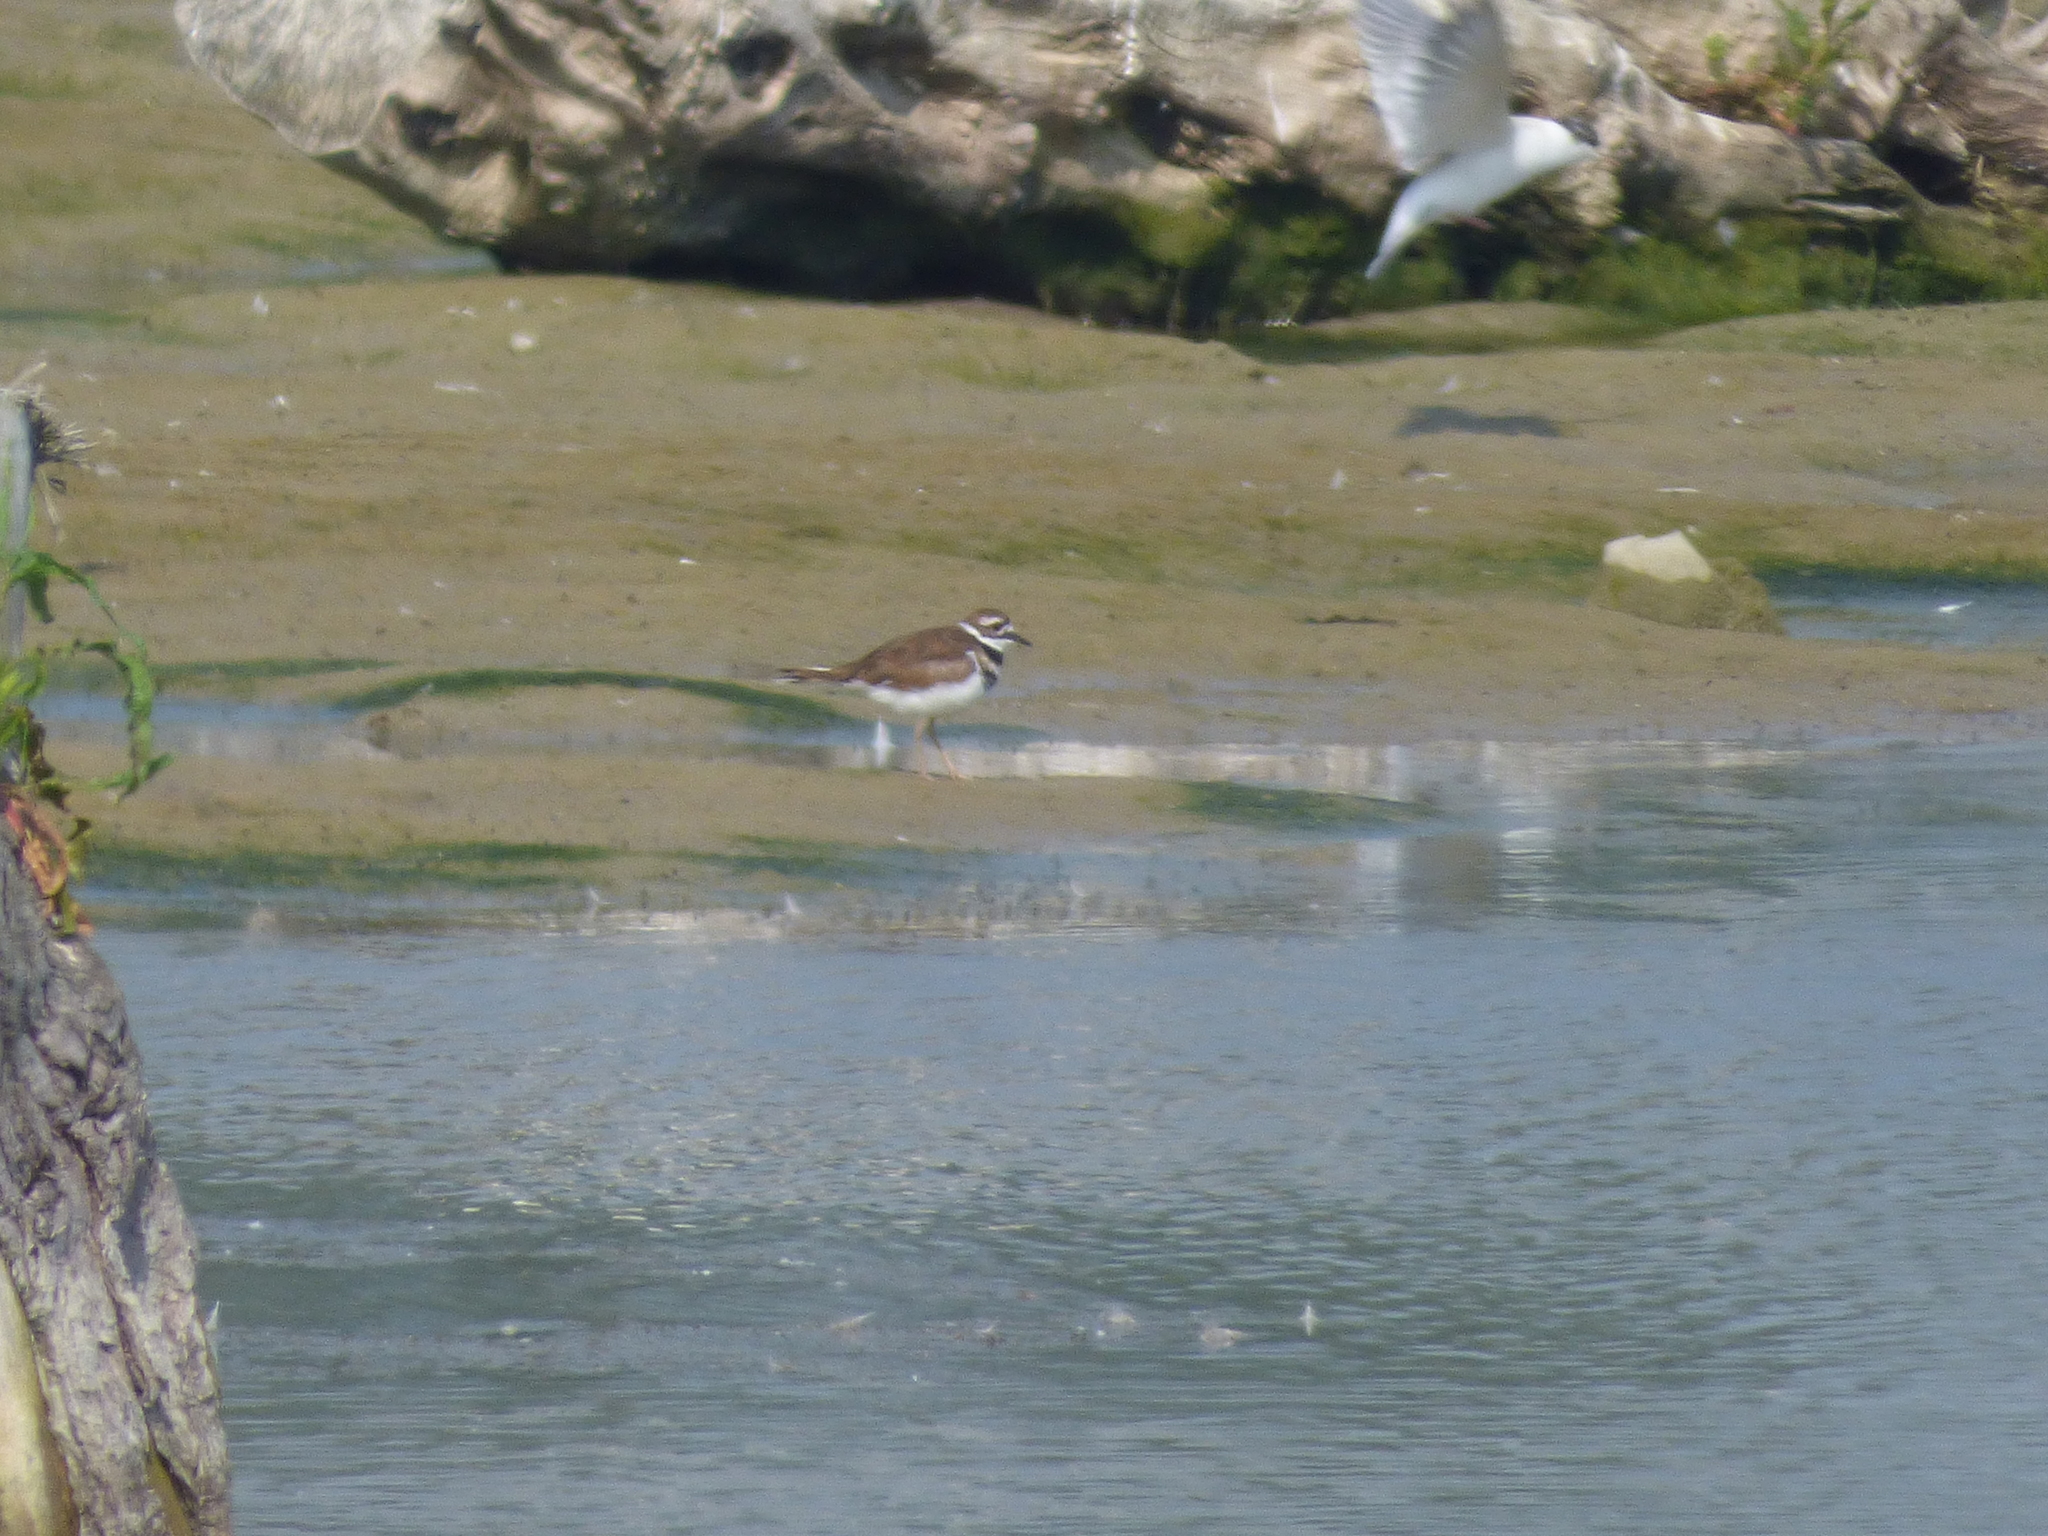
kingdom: Animalia
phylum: Chordata
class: Aves
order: Charadriiformes
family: Charadriidae
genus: Charadrius
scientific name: Charadrius vociferus
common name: Killdeer
